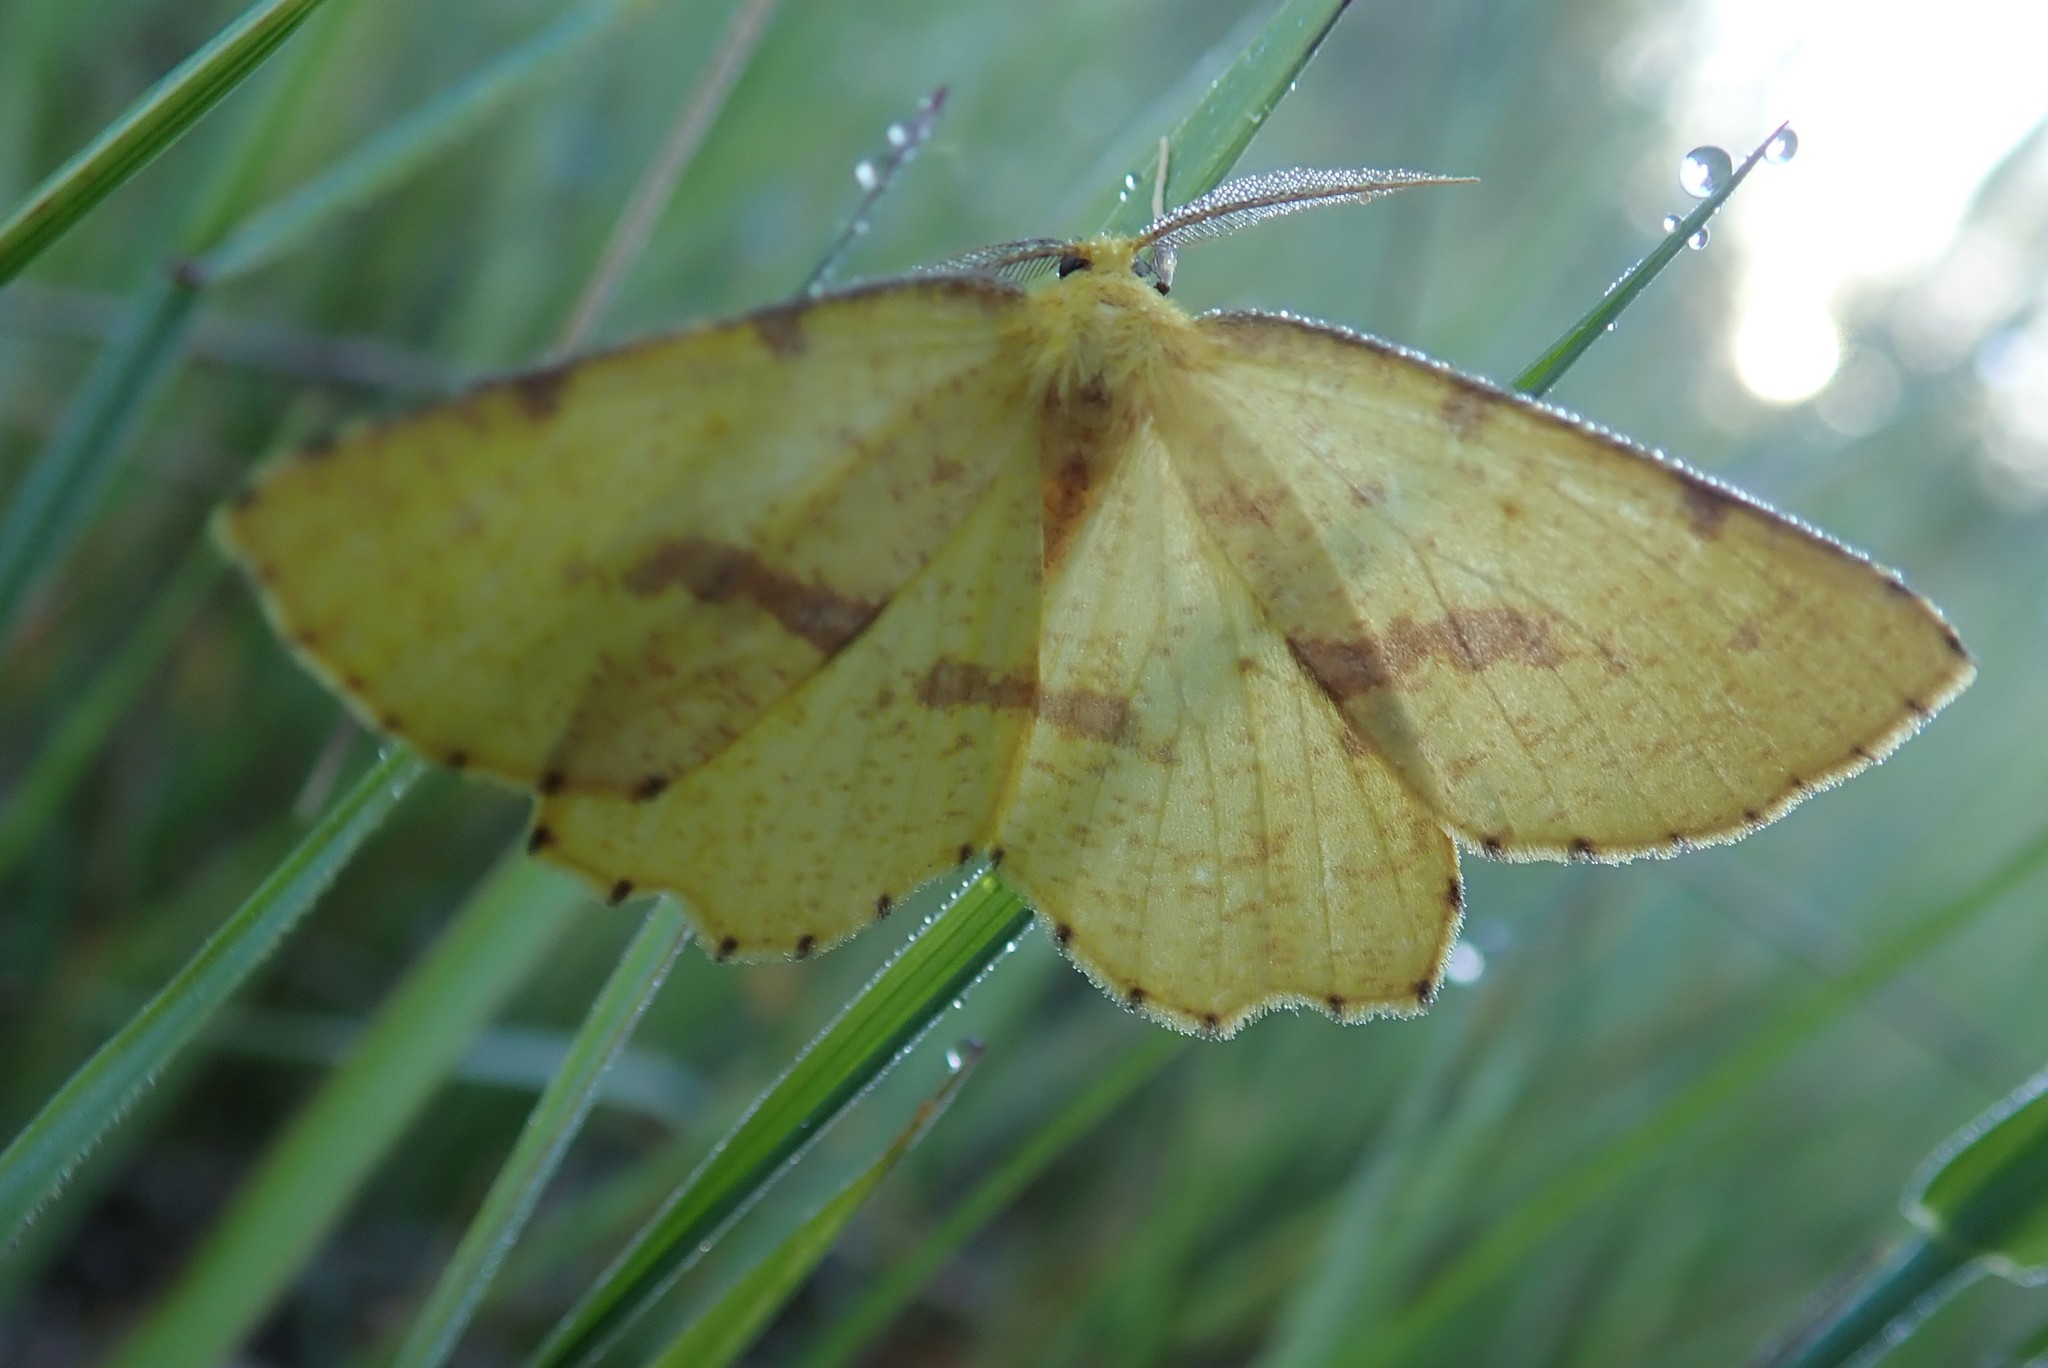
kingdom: Animalia
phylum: Arthropoda
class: Insecta
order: Lepidoptera
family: Geometridae
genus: Xanthotype
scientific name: Xanthotype
